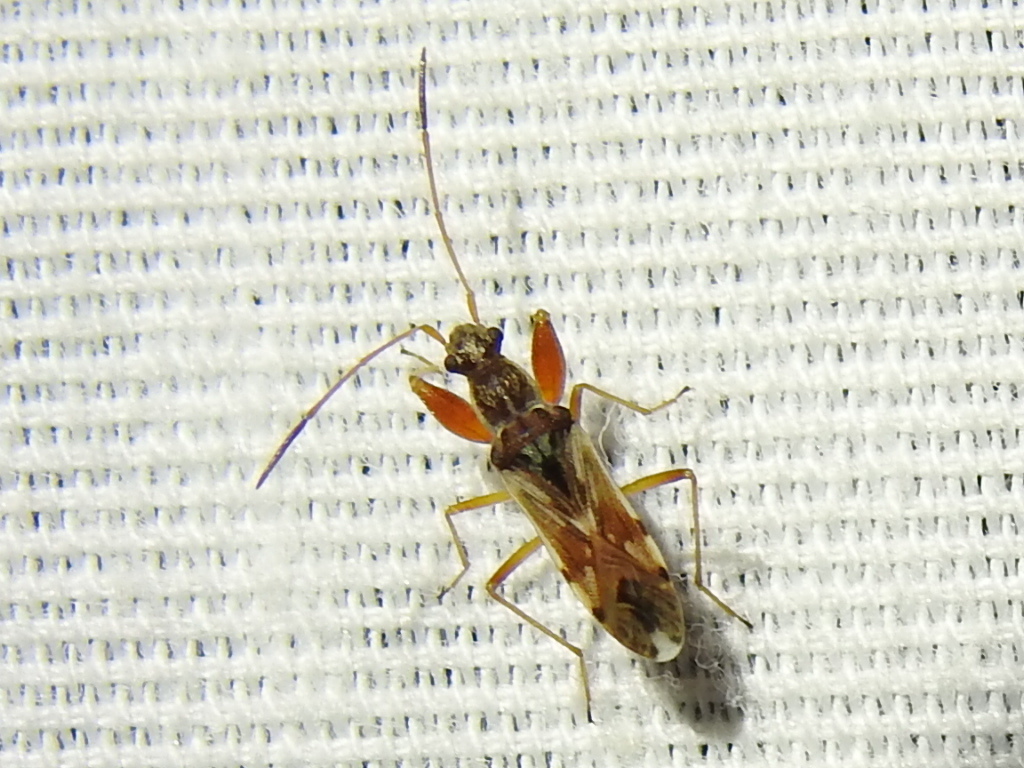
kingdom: Animalia
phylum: Arthropoda
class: Insecta
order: Hemiptera
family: Rhyparochromidae
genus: Neopamera
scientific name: Neopamera bilobata
